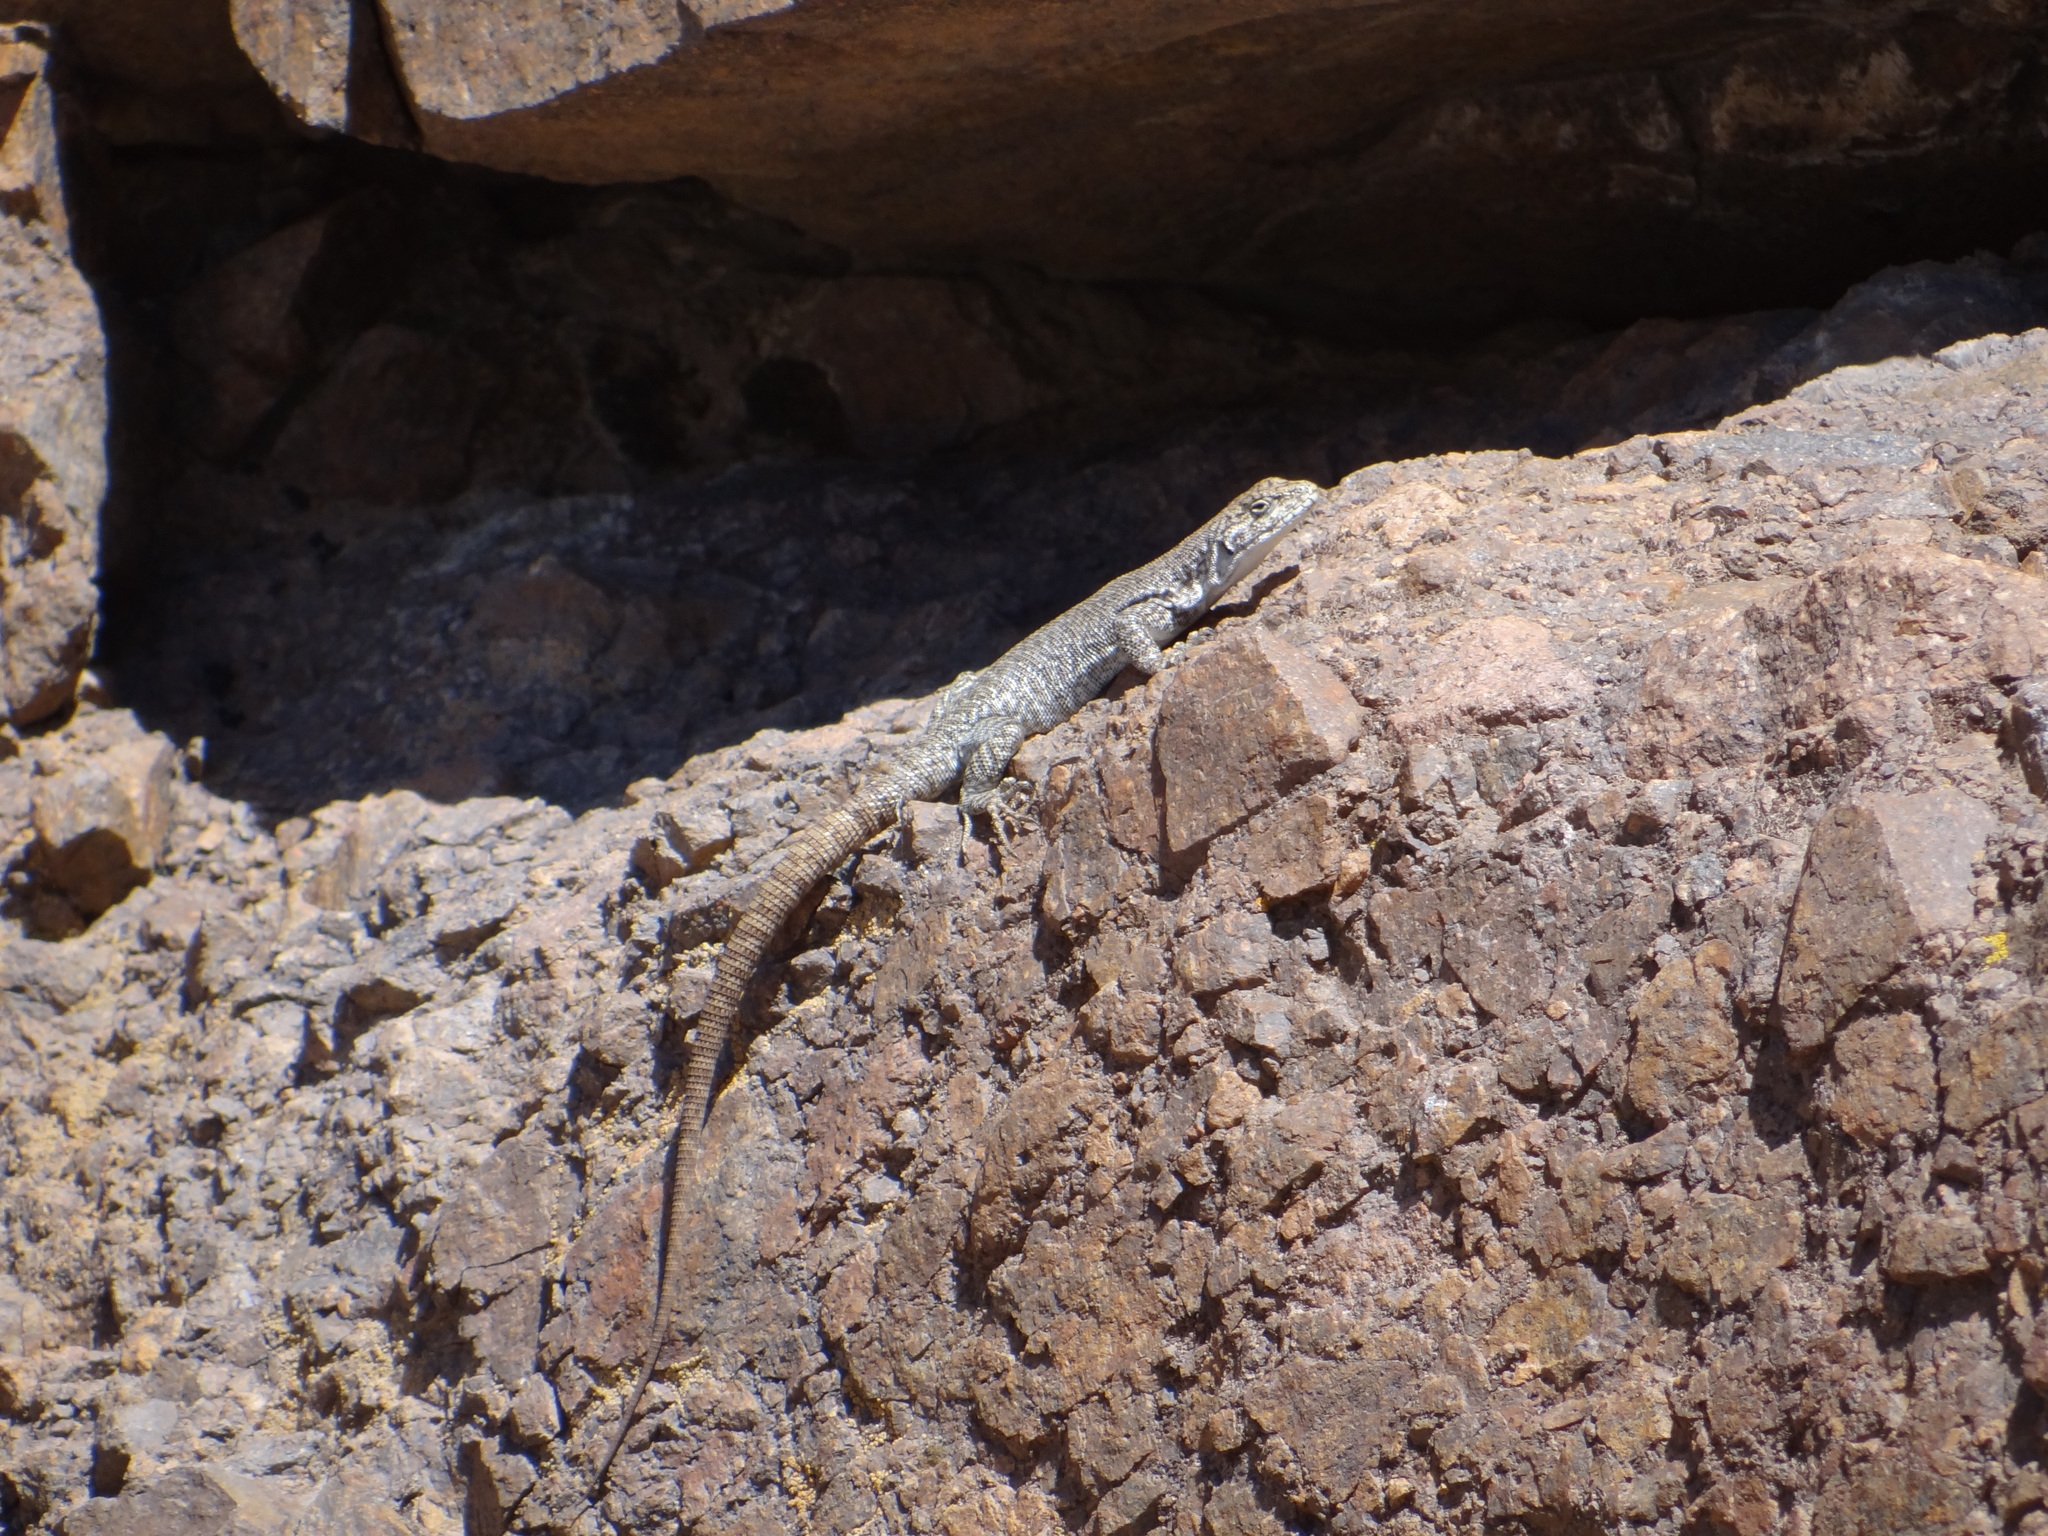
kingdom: Animalia
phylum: Chordata
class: Squamata
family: Liolaemidae
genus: Liolaemus
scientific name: Liolaemus austromendocinus
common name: Austromendocino tree iguana
